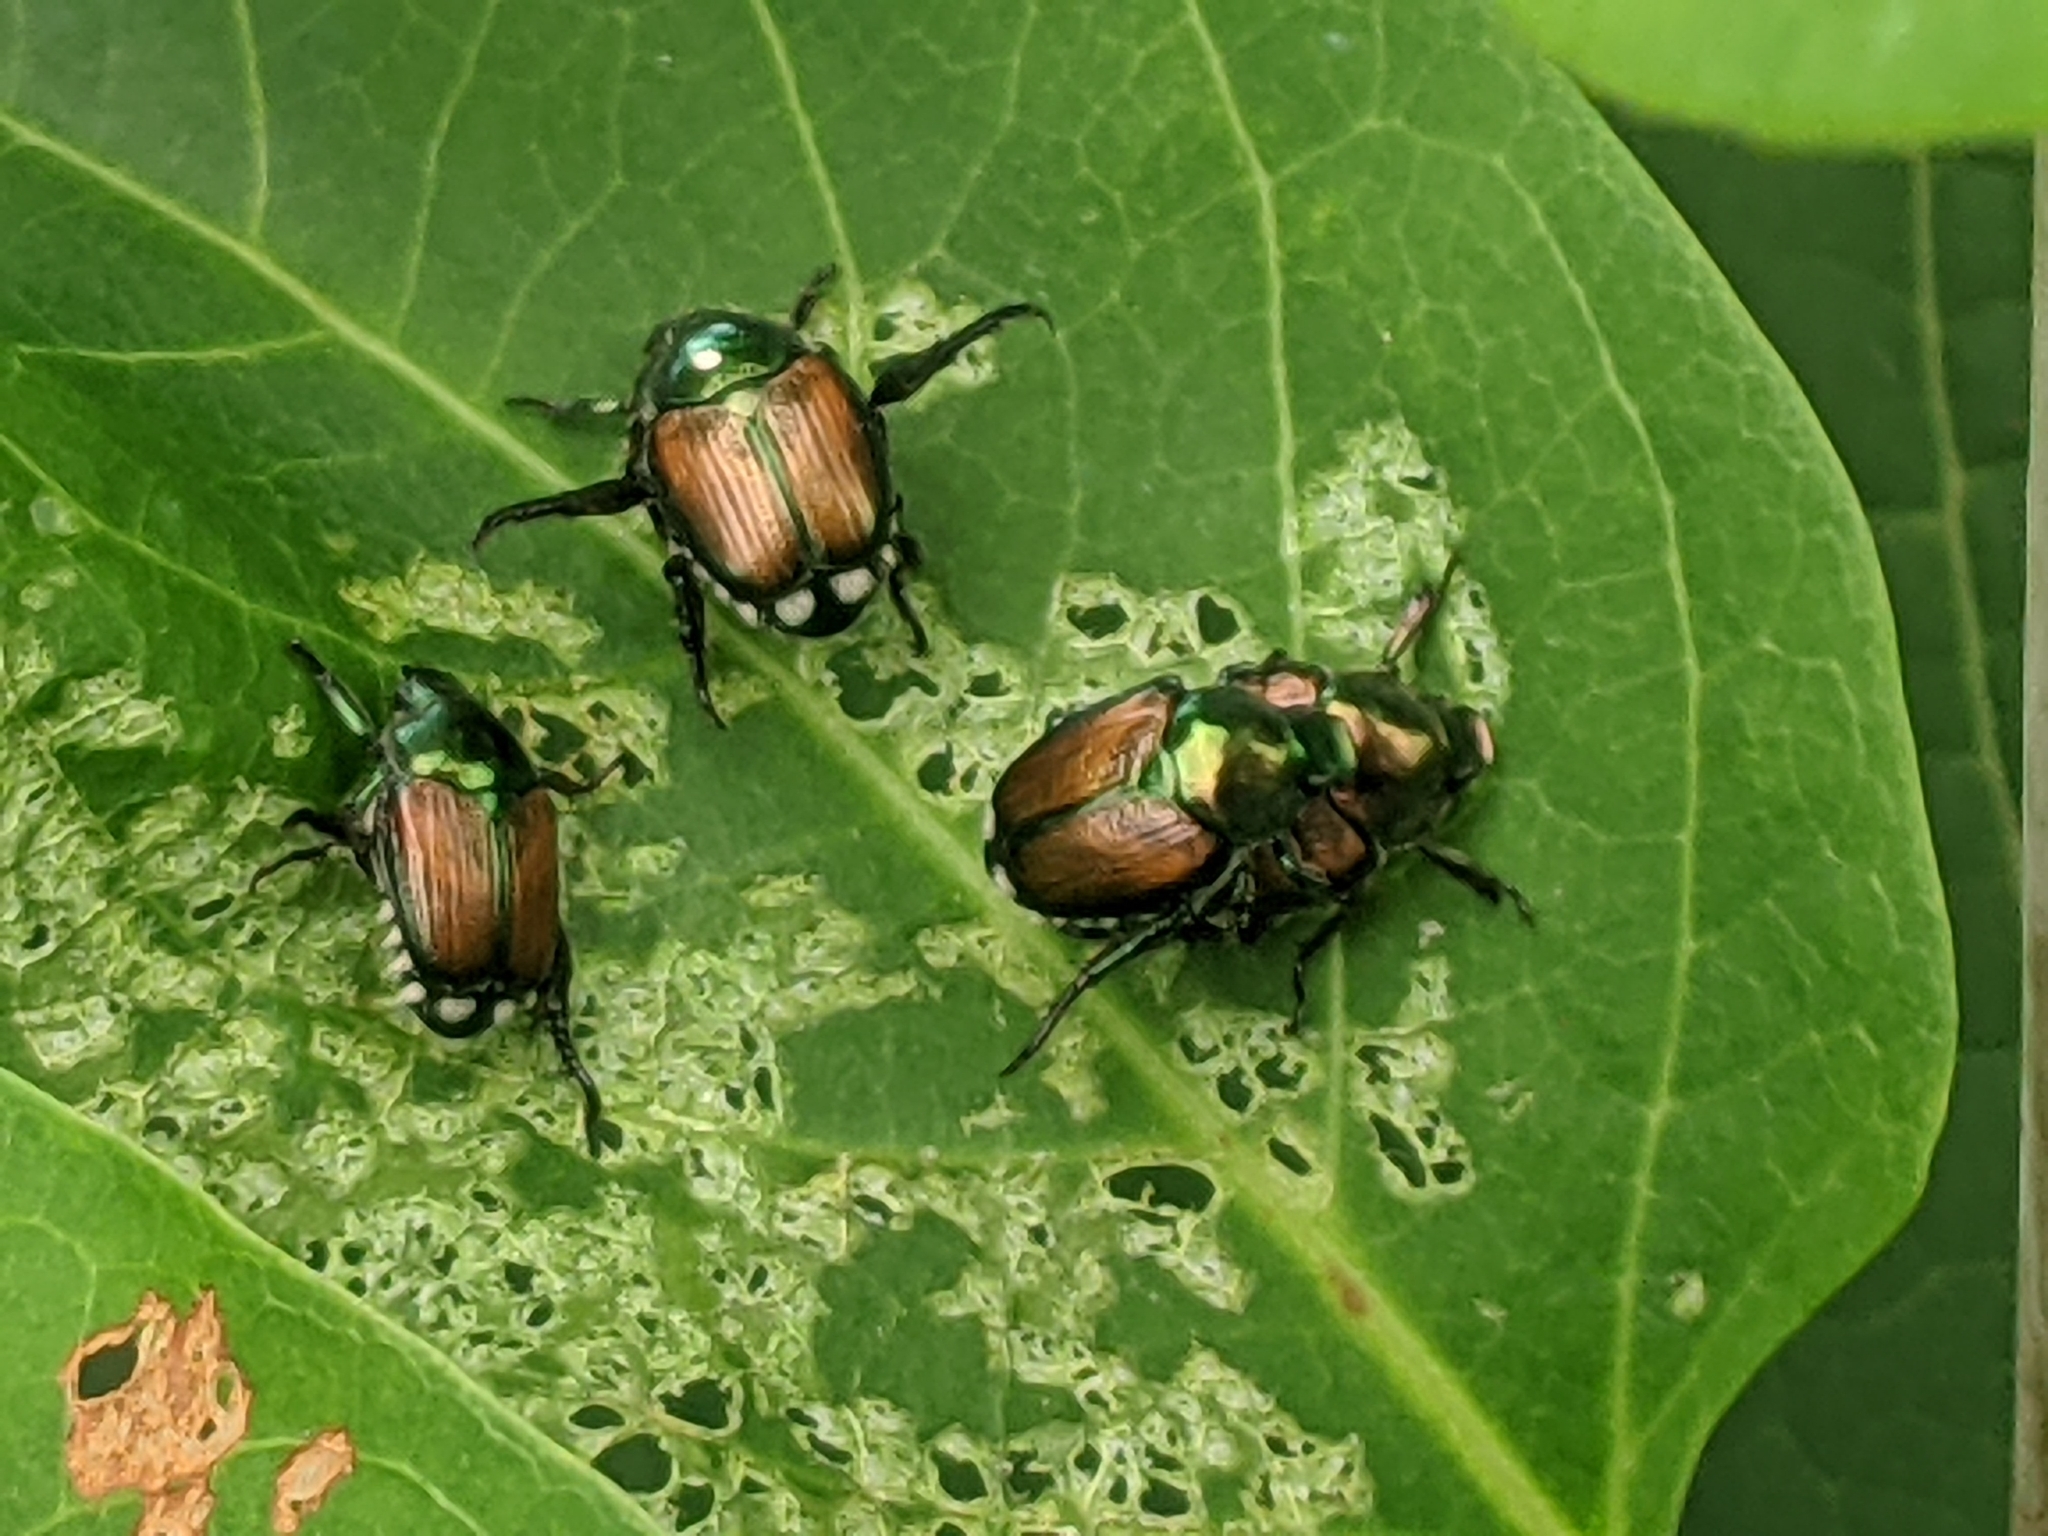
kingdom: Animalia
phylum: Arthropoda
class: Insecta
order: Coleoptera
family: Scarabaeidae
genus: Popillia
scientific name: Popillia japonica
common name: Japanese beetle
